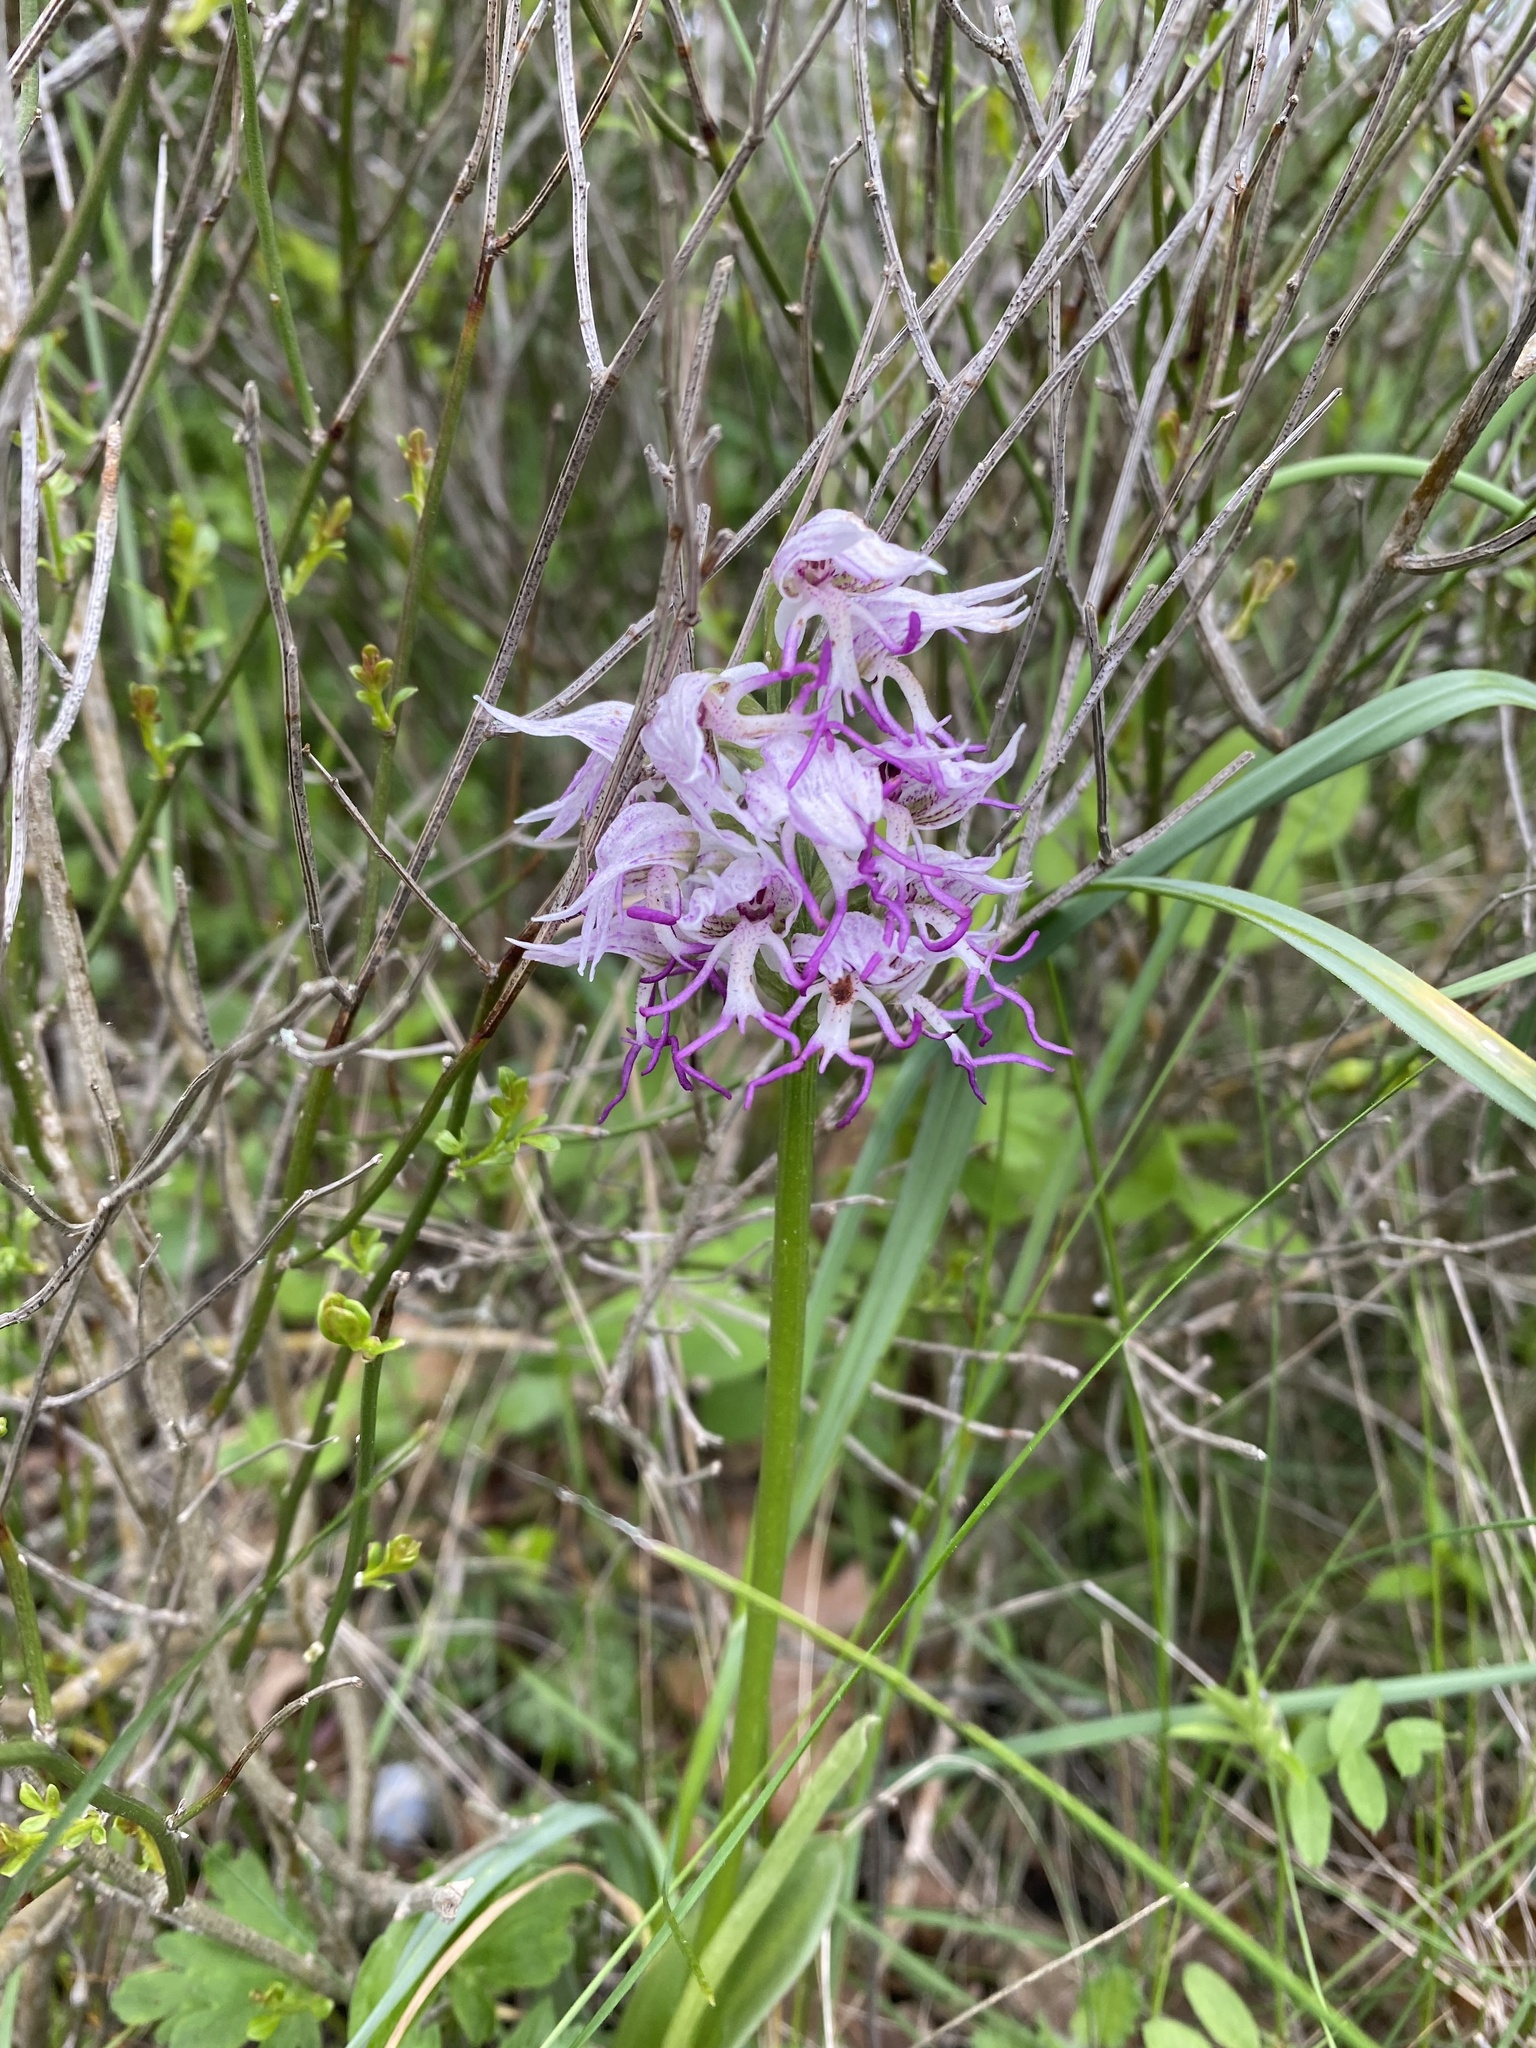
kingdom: Plantae
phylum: Tracheophyta
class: Liliopsida
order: Asparagales
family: Orchidaceae
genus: Orchis
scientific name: Orchis simia
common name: Monkey orchid
